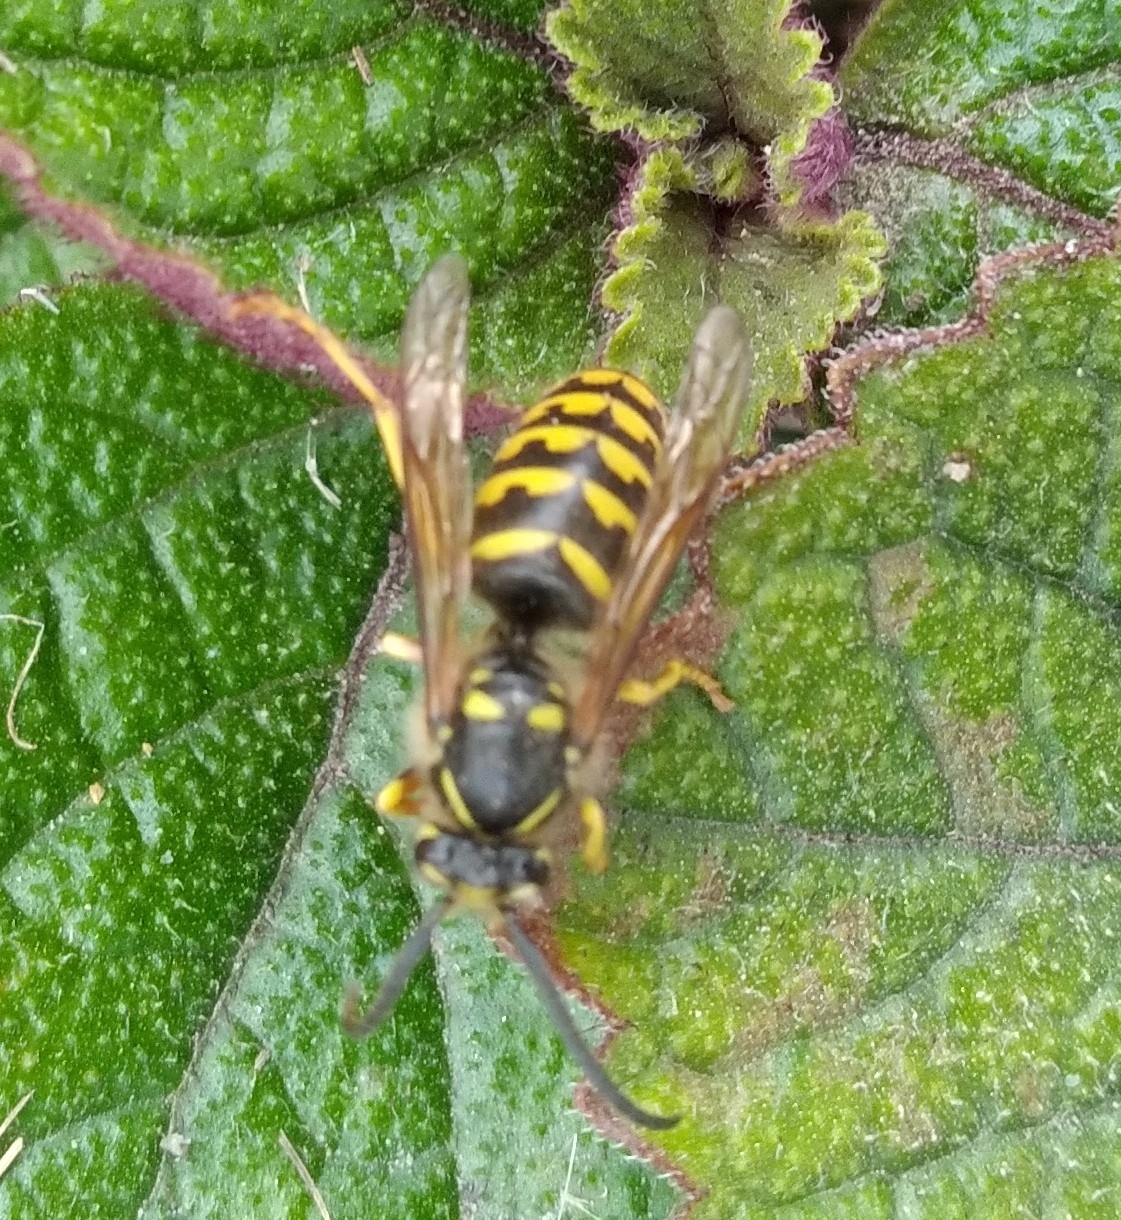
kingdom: Animalia
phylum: Arthropoda
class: Insecta
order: Hymenoptera
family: Vespidae
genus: Dolichovespula
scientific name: Dolichovespula arenaria
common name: Aerial yellowjacket
